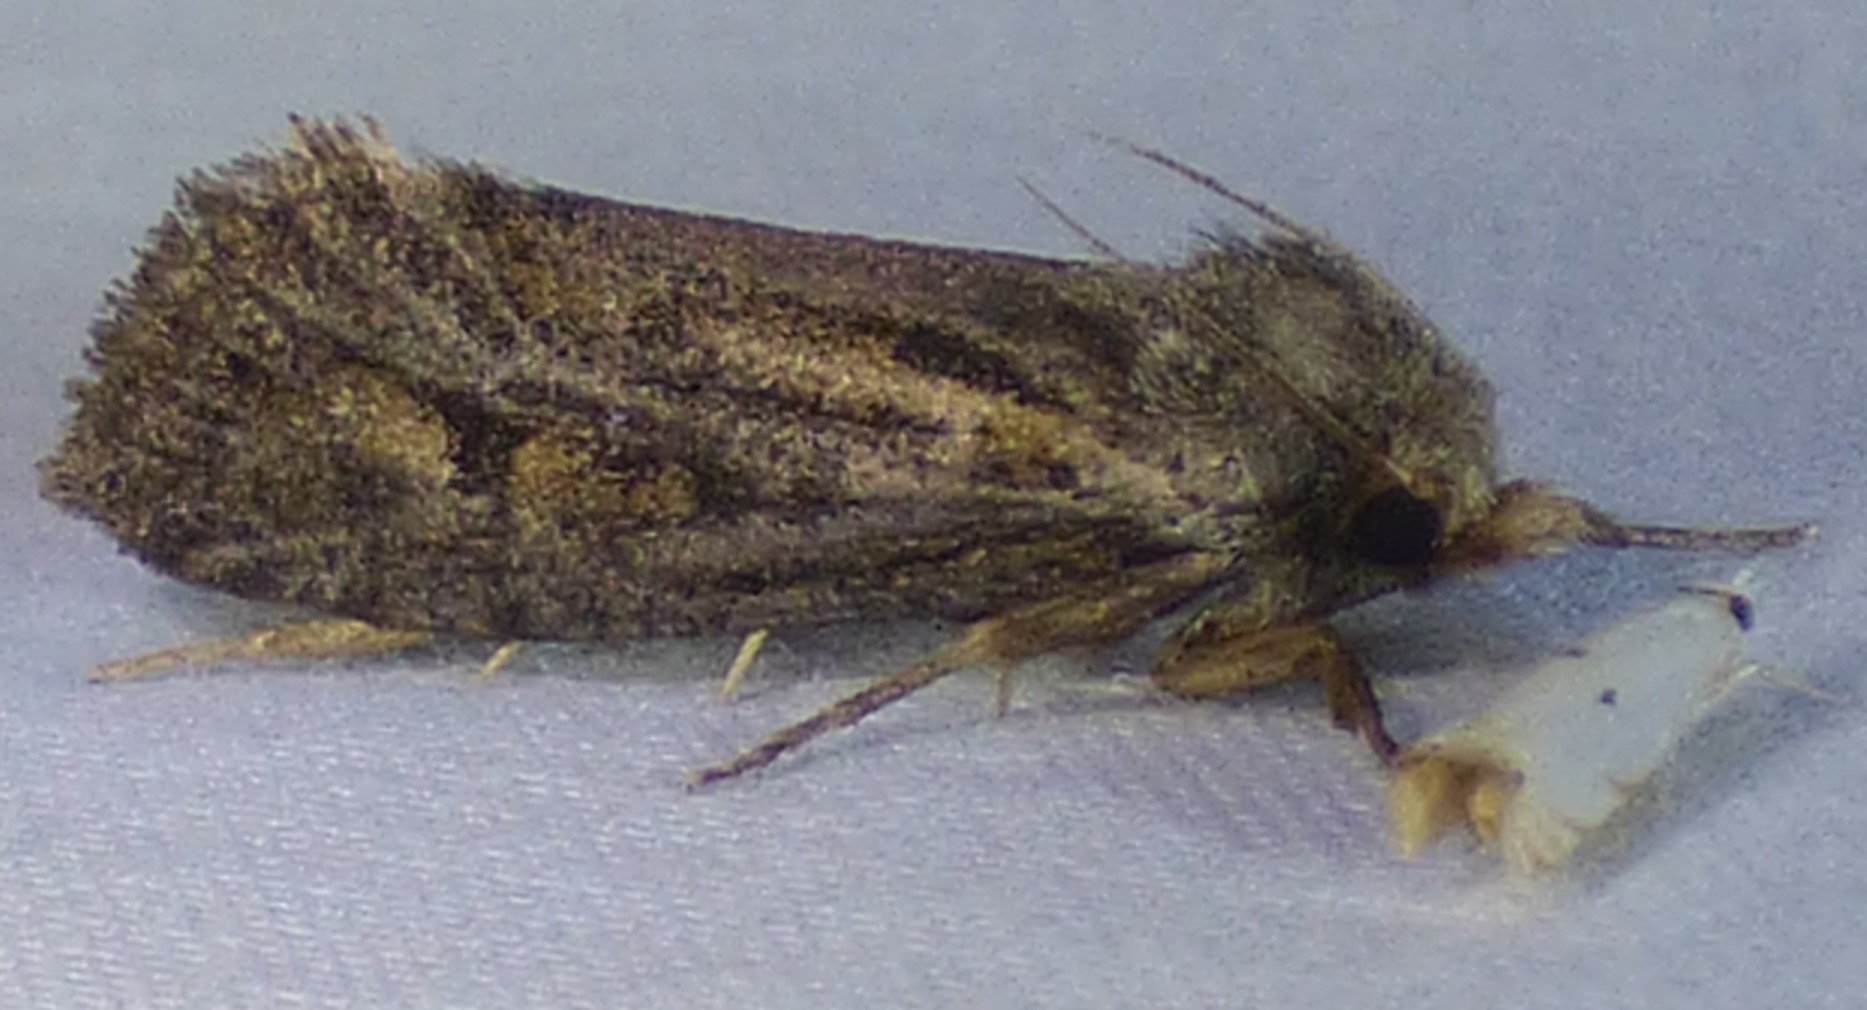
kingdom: Animalia
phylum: Arthropoda
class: Insecta
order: Lepidoptera
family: Tineidae
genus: Acrolophus
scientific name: Acrolophus popeanella
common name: Clemens' grass tubeworm moth
